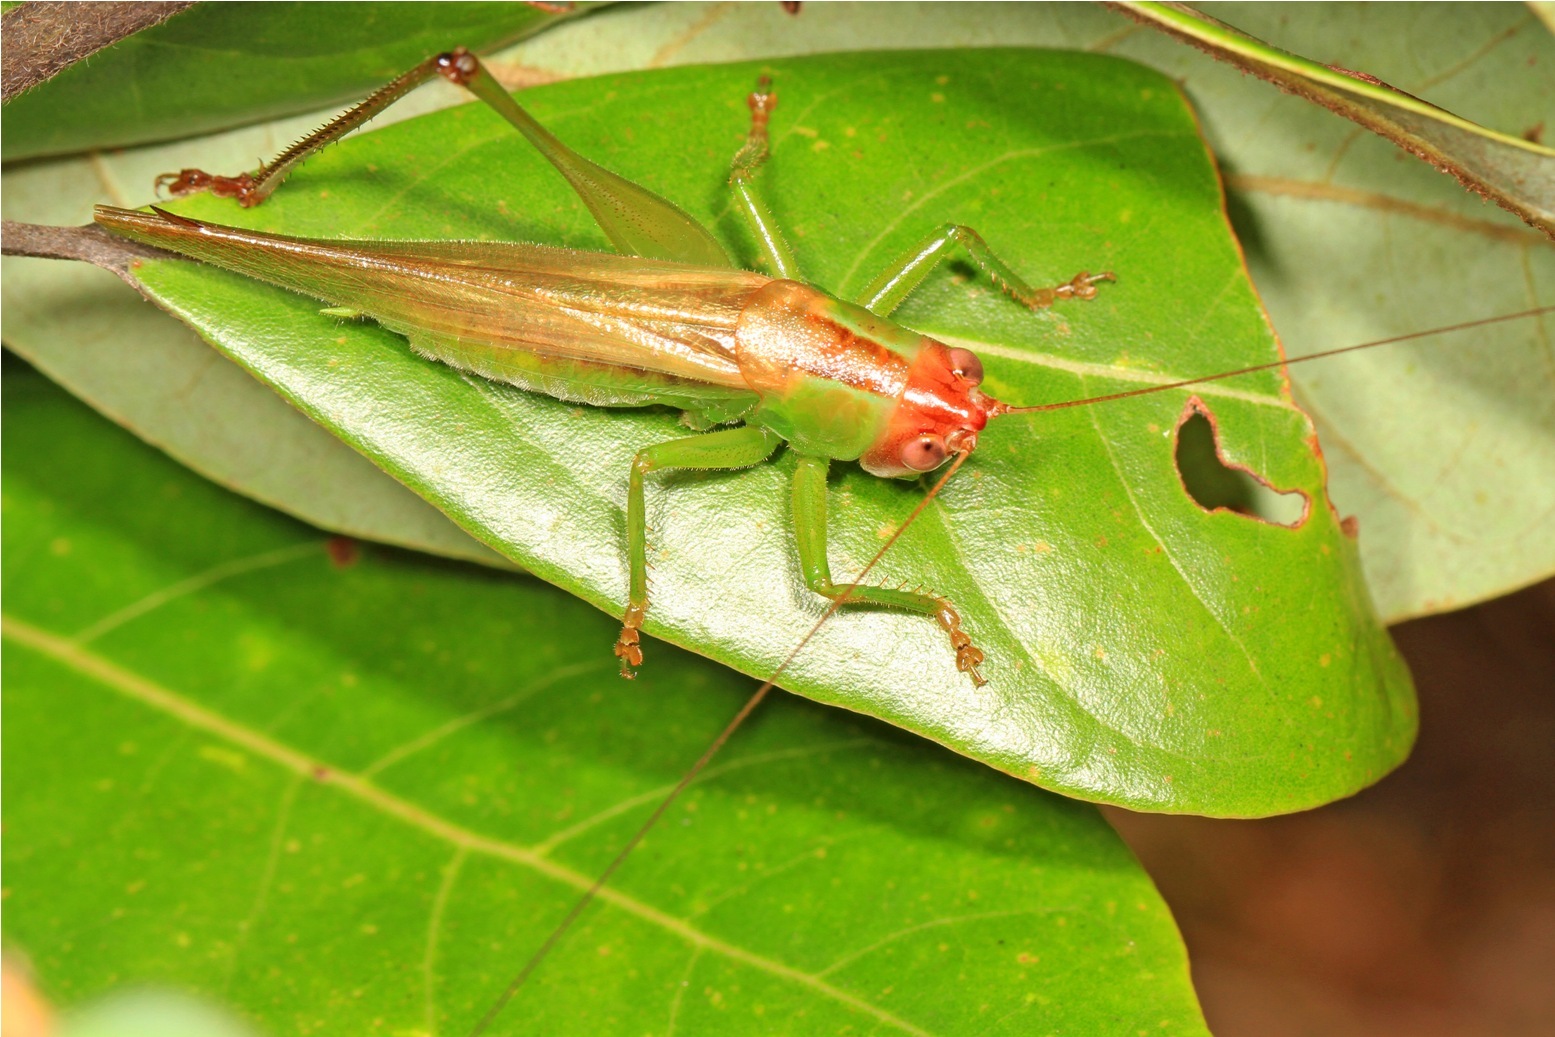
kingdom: Animalia
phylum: Arthropoda
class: Insecta
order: Orthoptera
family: Tettigoniidae
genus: Orchelimum
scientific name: Orchelimum erythrocephalum
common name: Red-headed meadow katydid
